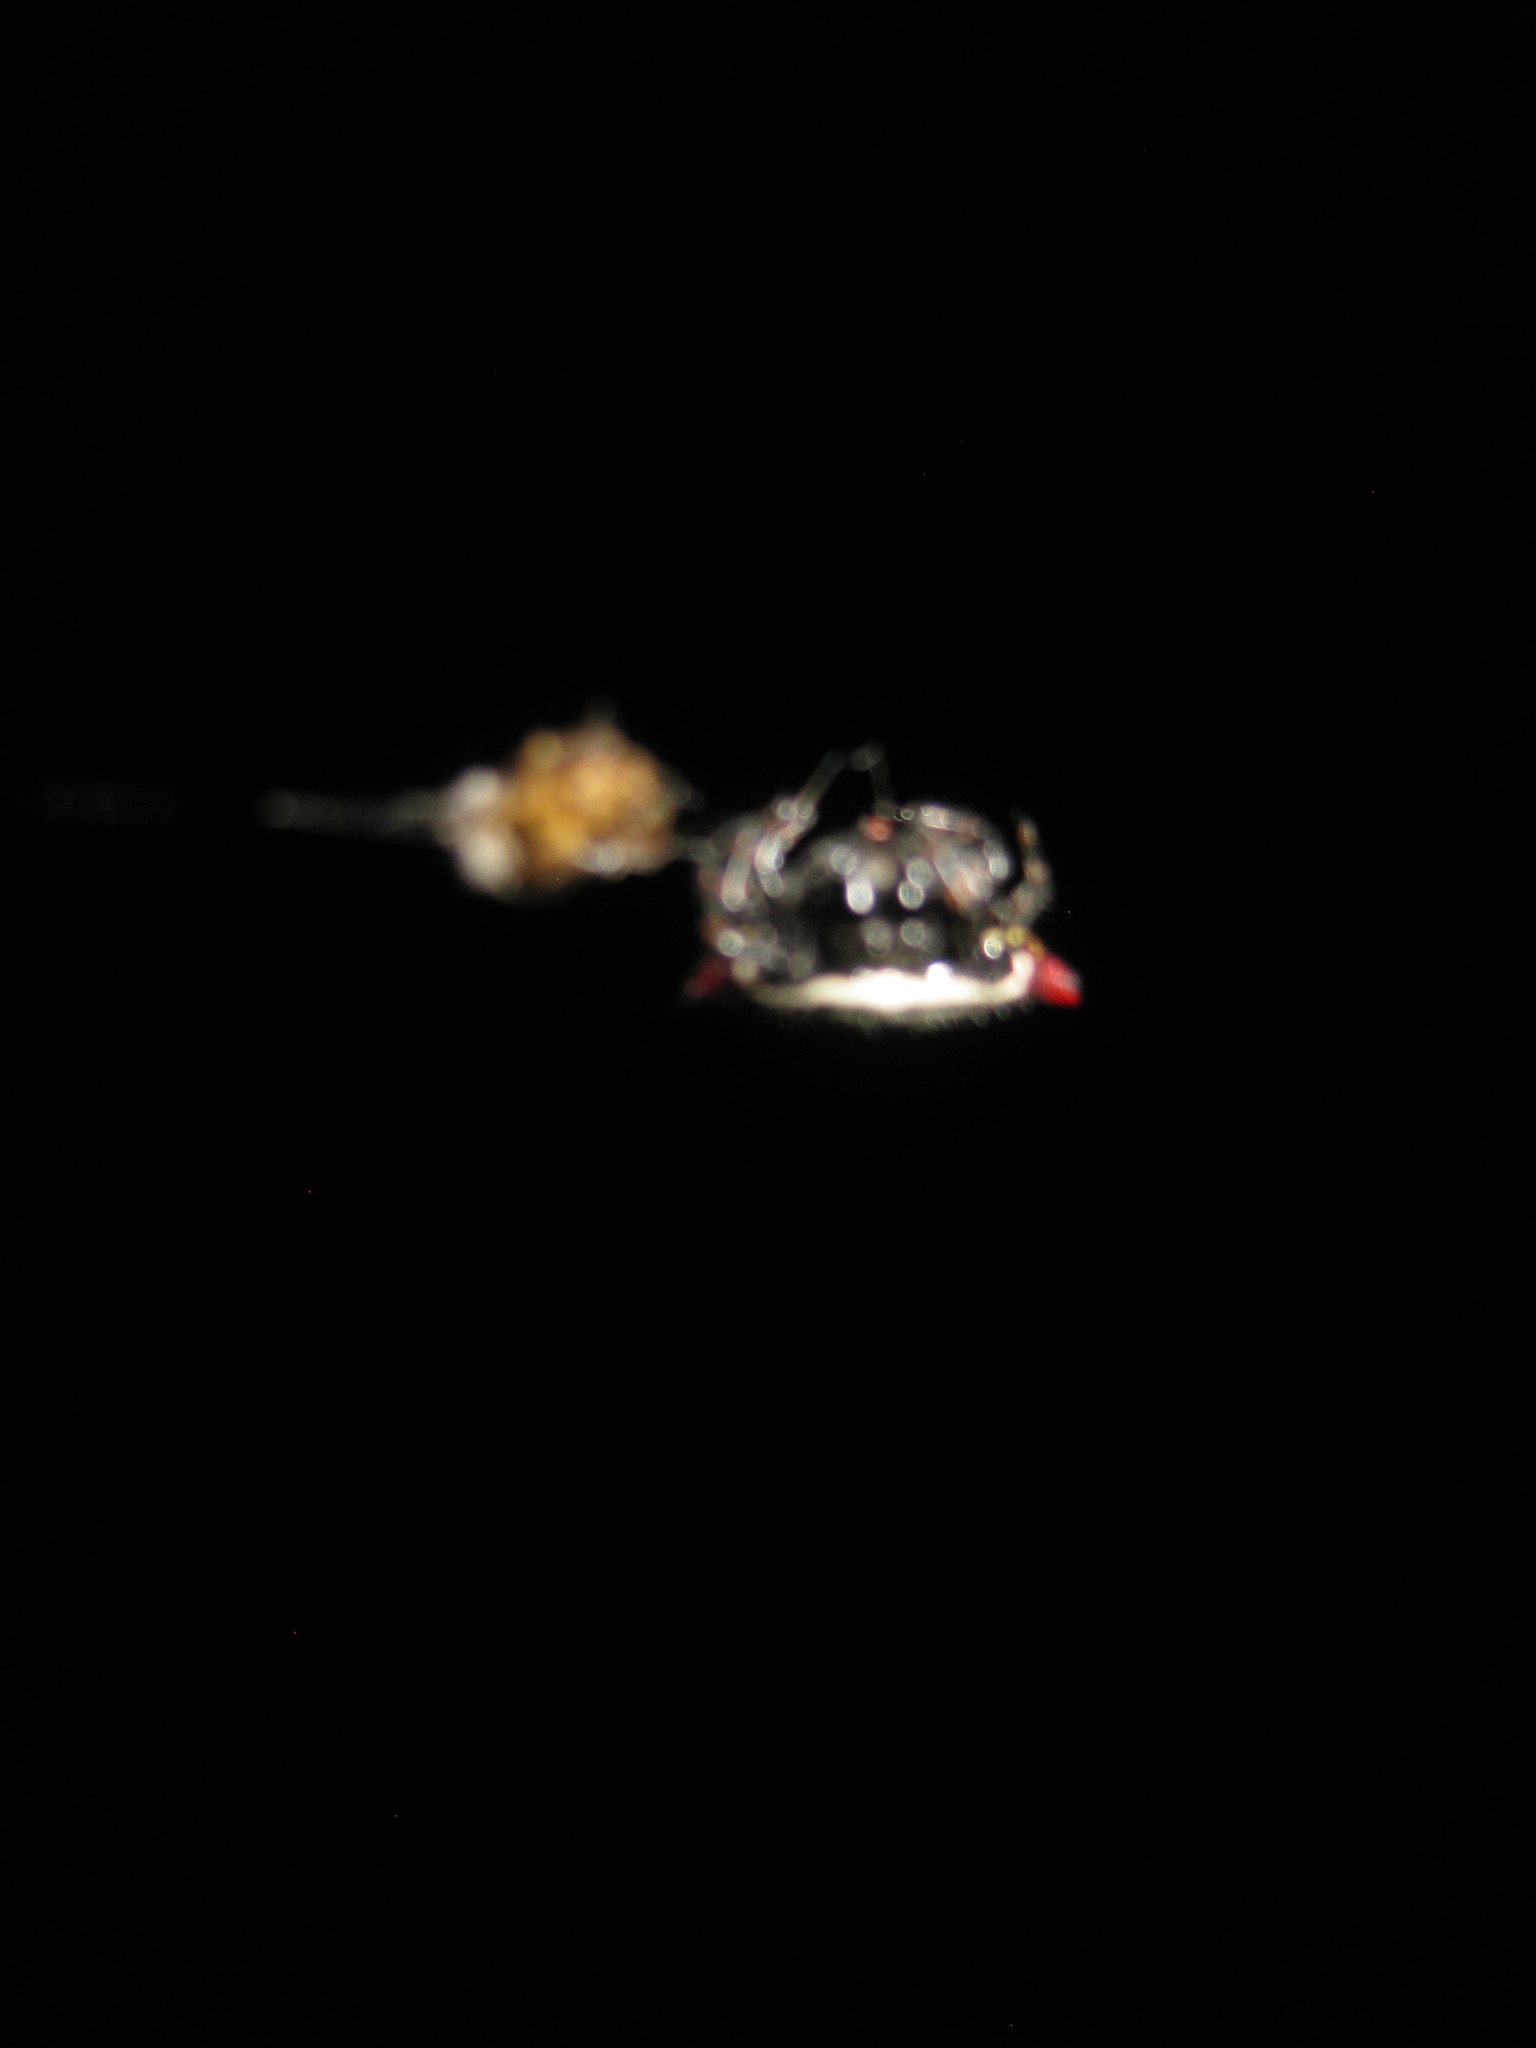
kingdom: Animalia
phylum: Arthropoda
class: Arachnida
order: Araneae
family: Araneidae
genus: Gasteracantha
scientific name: Gasteracantha cancriformis
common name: Orb weavers
